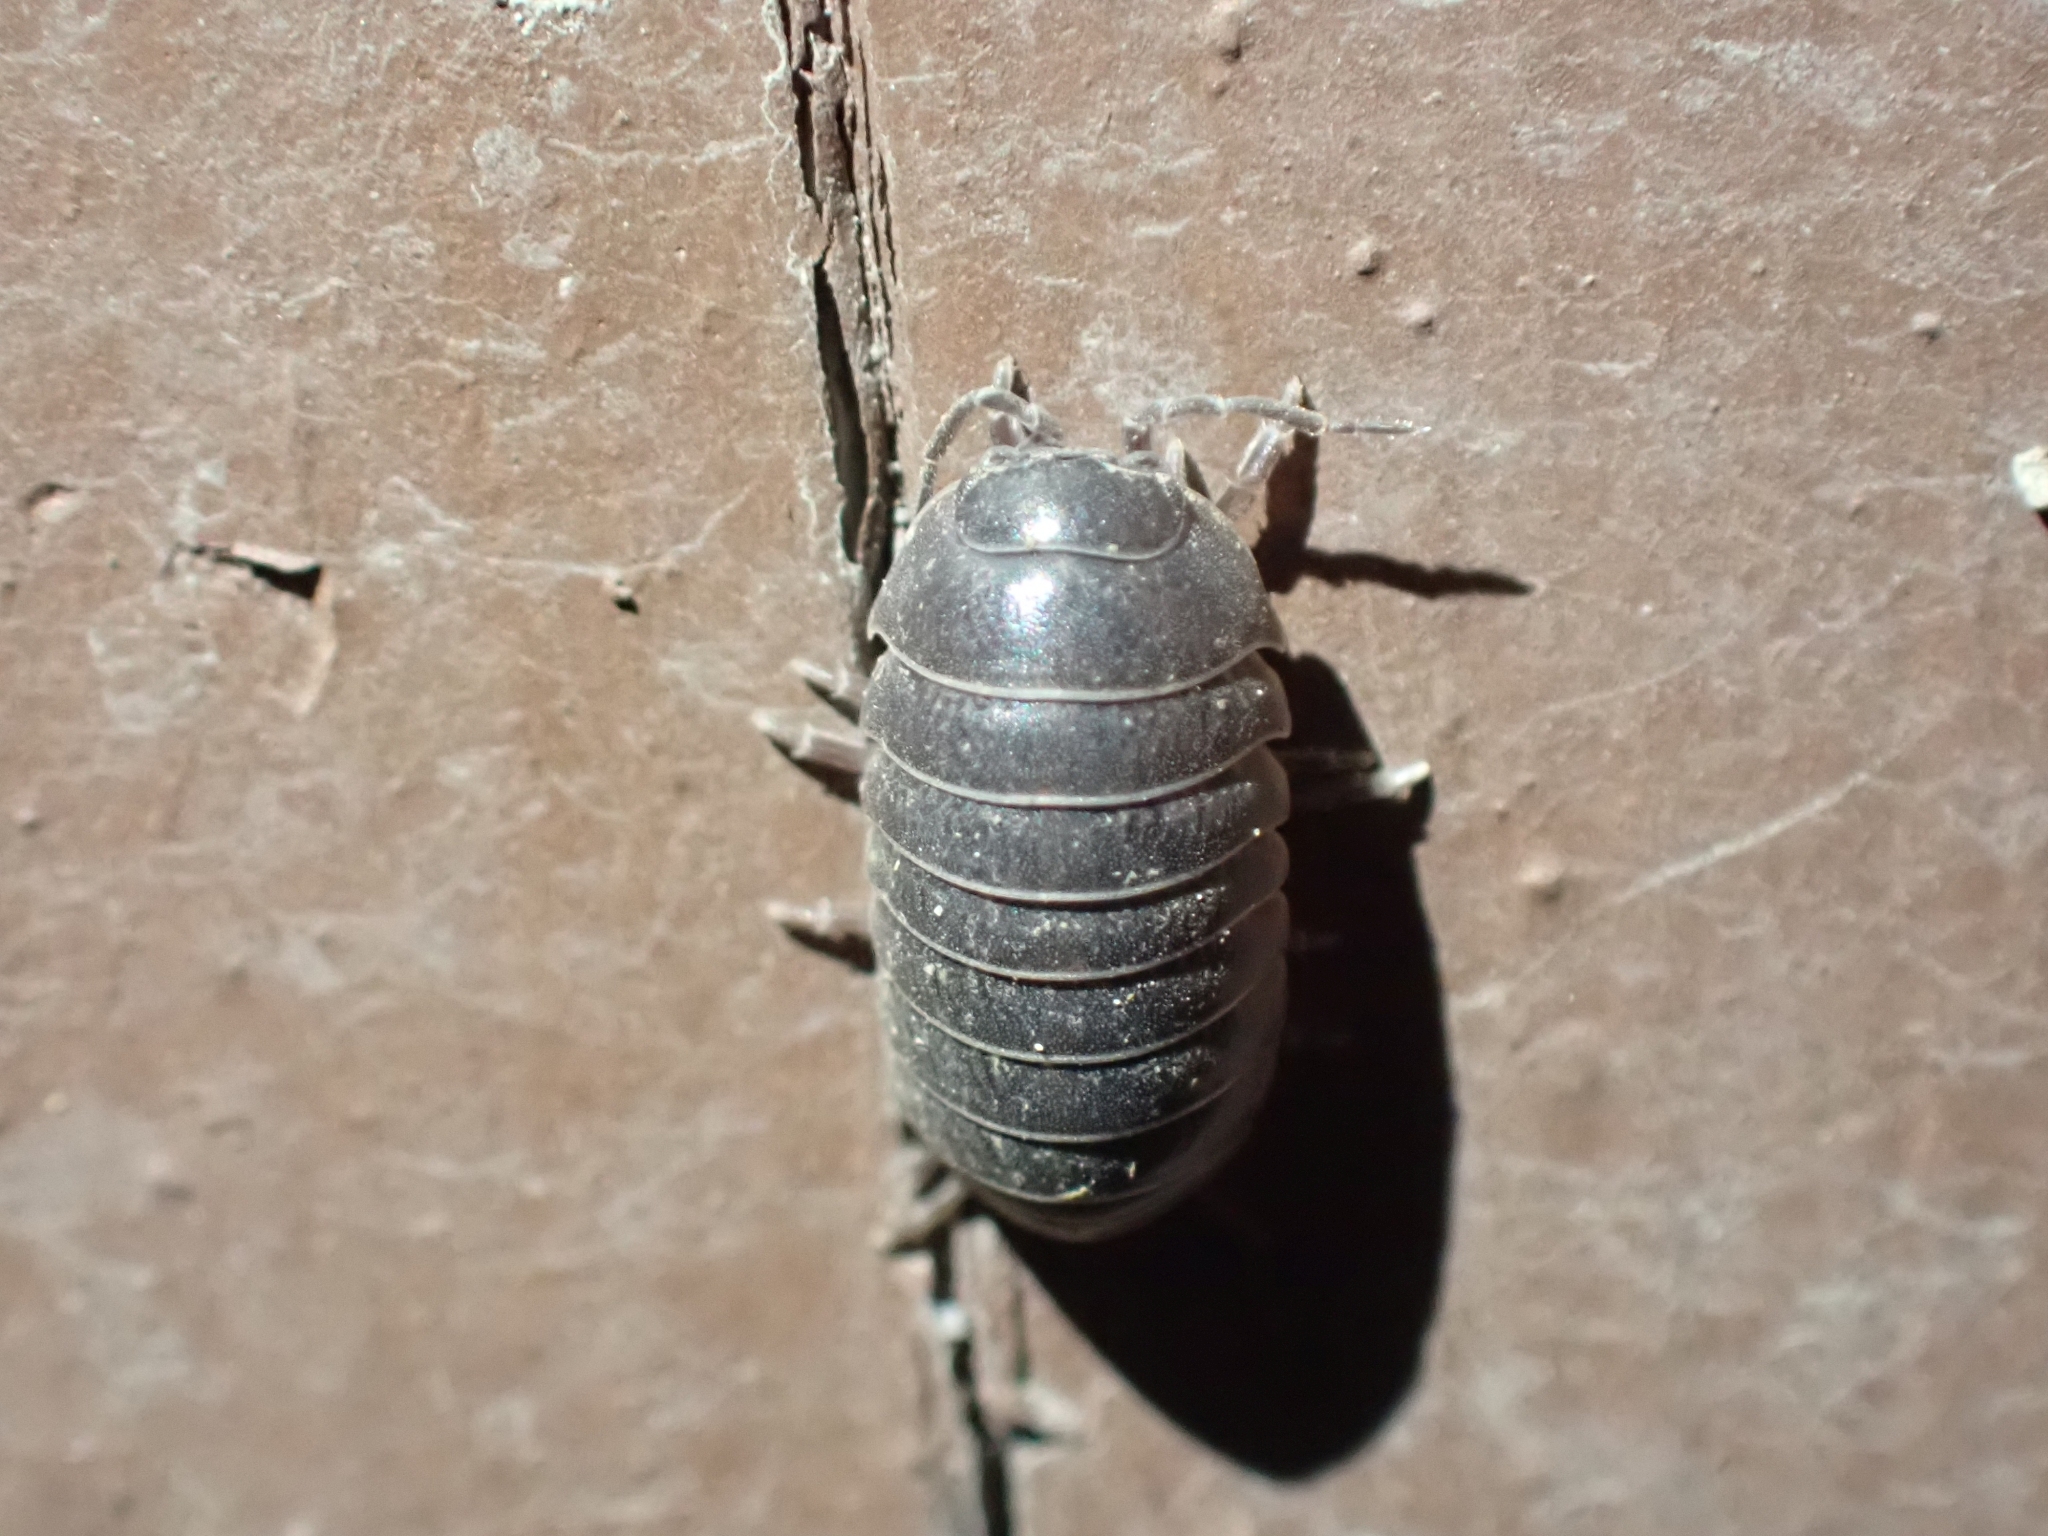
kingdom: Animalia
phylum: Arthropoda
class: Malacostraca
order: Isopoda
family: Armadillidiidae
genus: Armadillidium
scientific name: Armadillidium vulgare
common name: Common pill woodlouse
